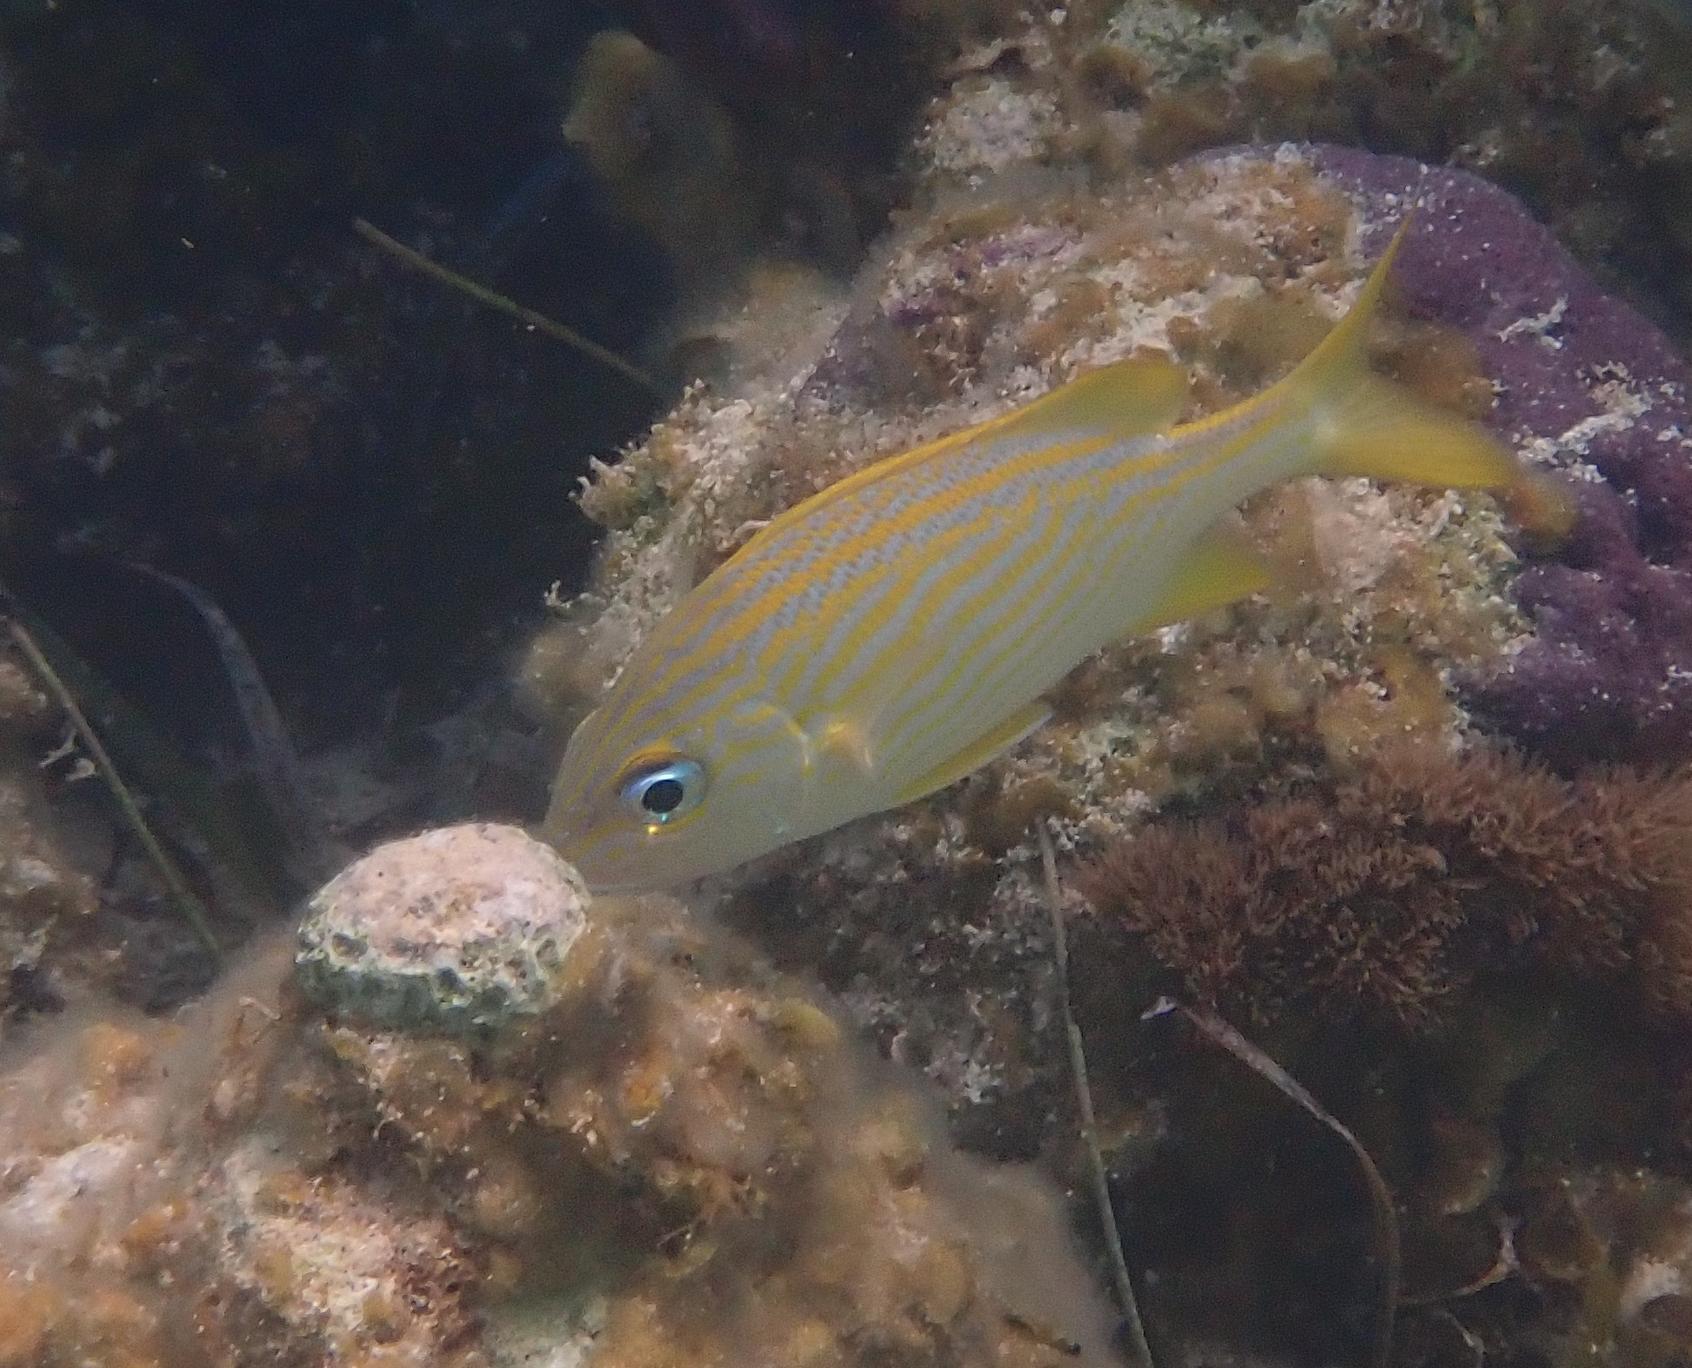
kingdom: Animalia
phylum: Chordata
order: Perciformes
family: Haemulidae
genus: Haemulon
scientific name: Haemulon flavolineatum
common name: French grunt
